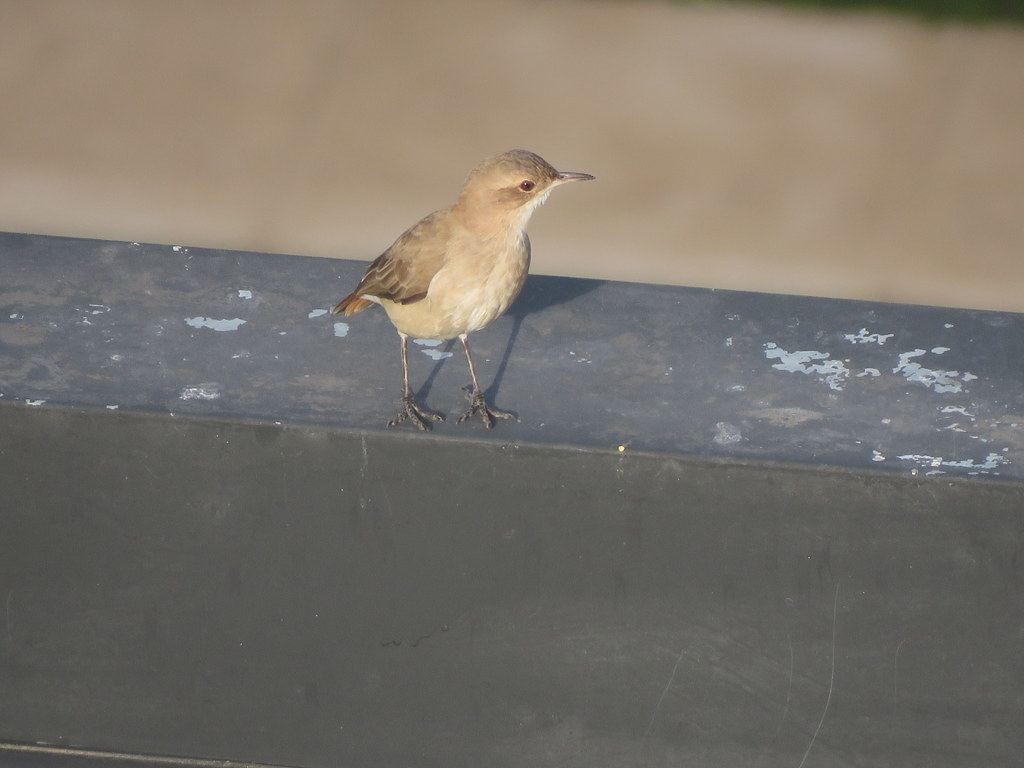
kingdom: Animalia
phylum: Chordata
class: Aves
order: Passeriformes
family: Furnariidae
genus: Furnarius
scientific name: Furnarius rufus
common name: Rufous hornero
